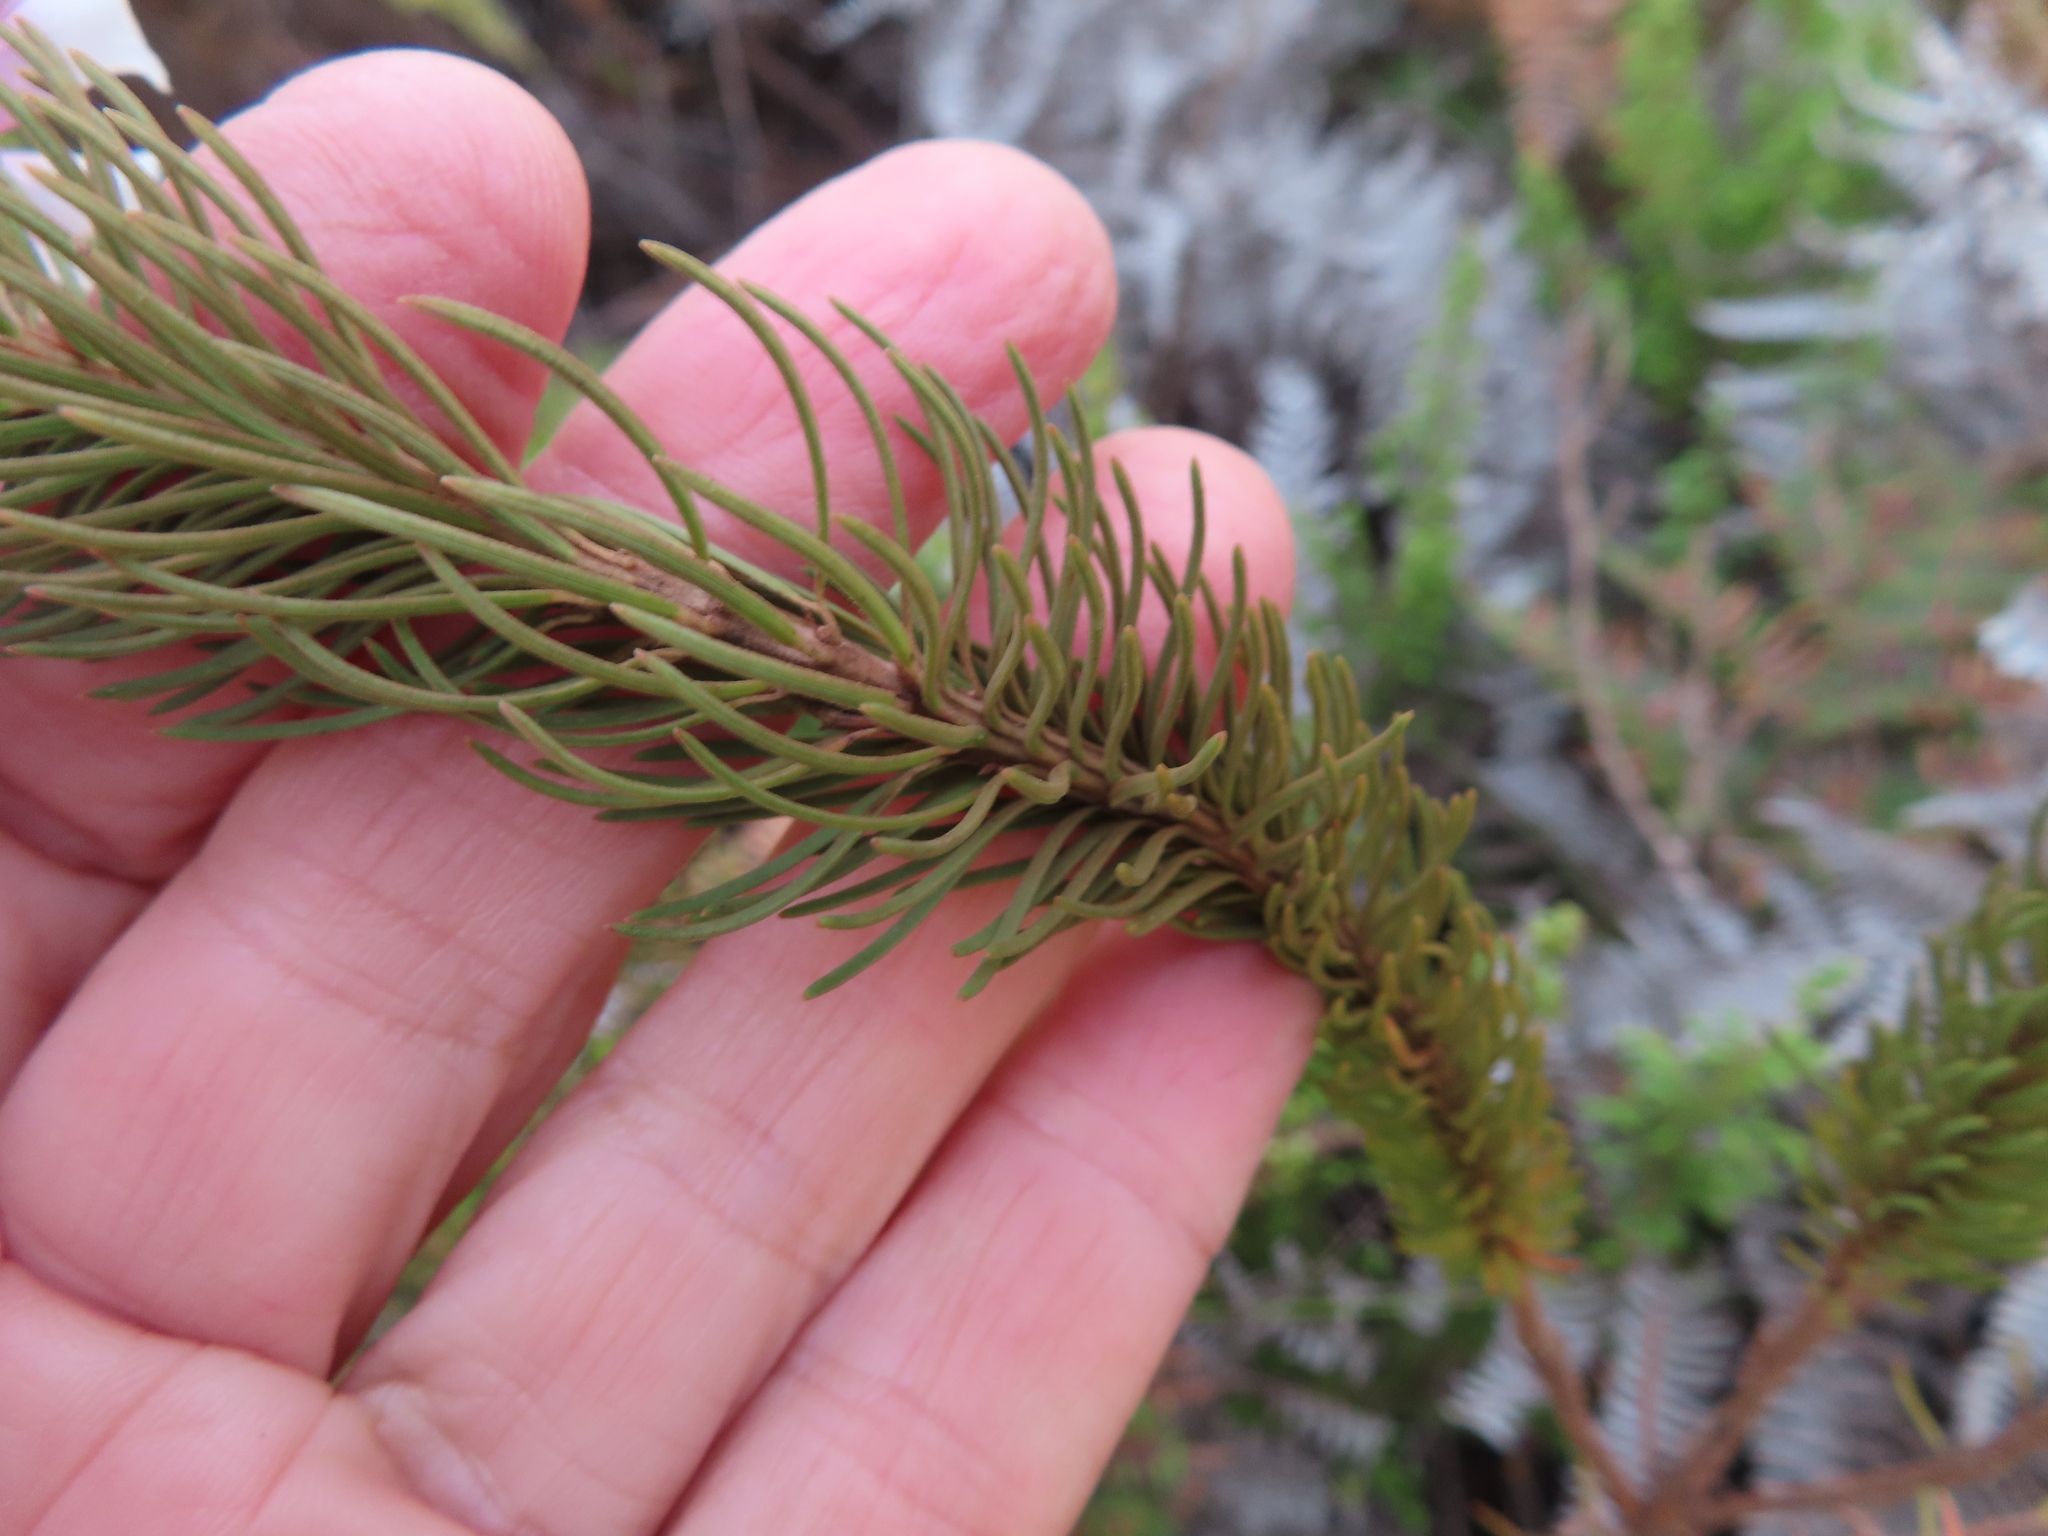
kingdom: Plantae
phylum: Tracheophyta
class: Magnoliopsida
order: Ericales
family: Ericaceae
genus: Erica
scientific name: Erica viscaria
